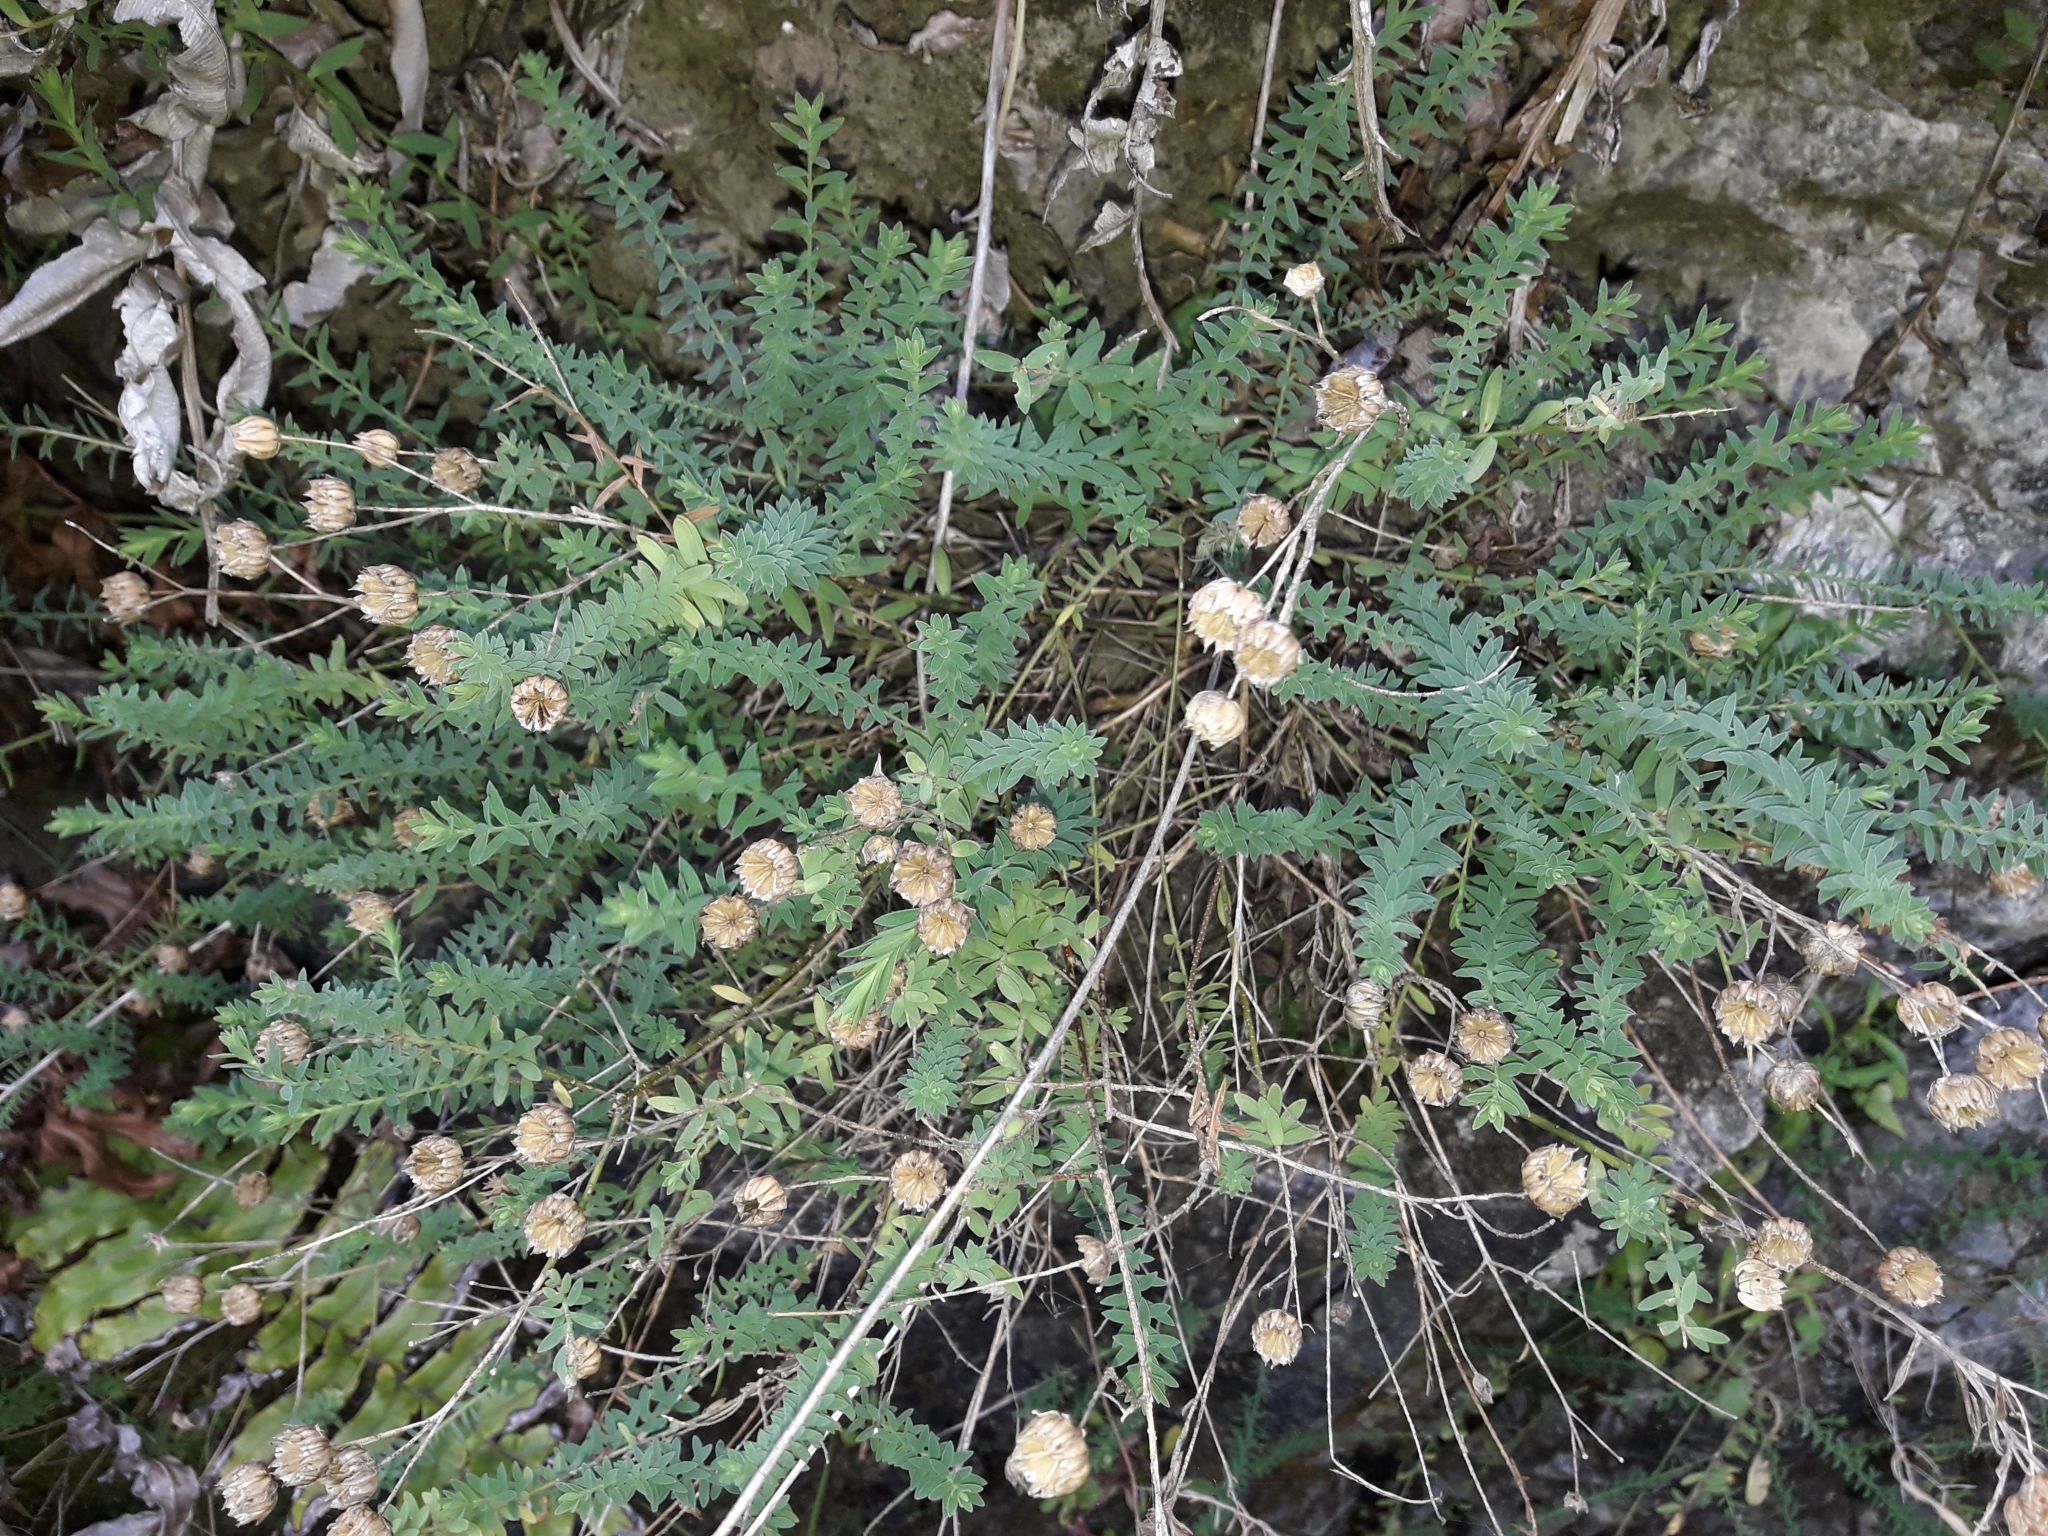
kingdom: Plantae
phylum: Tracheophyta
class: Magnoliopsida
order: Malpighiales
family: Linaceae
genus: Linum
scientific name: Linum monogynum
